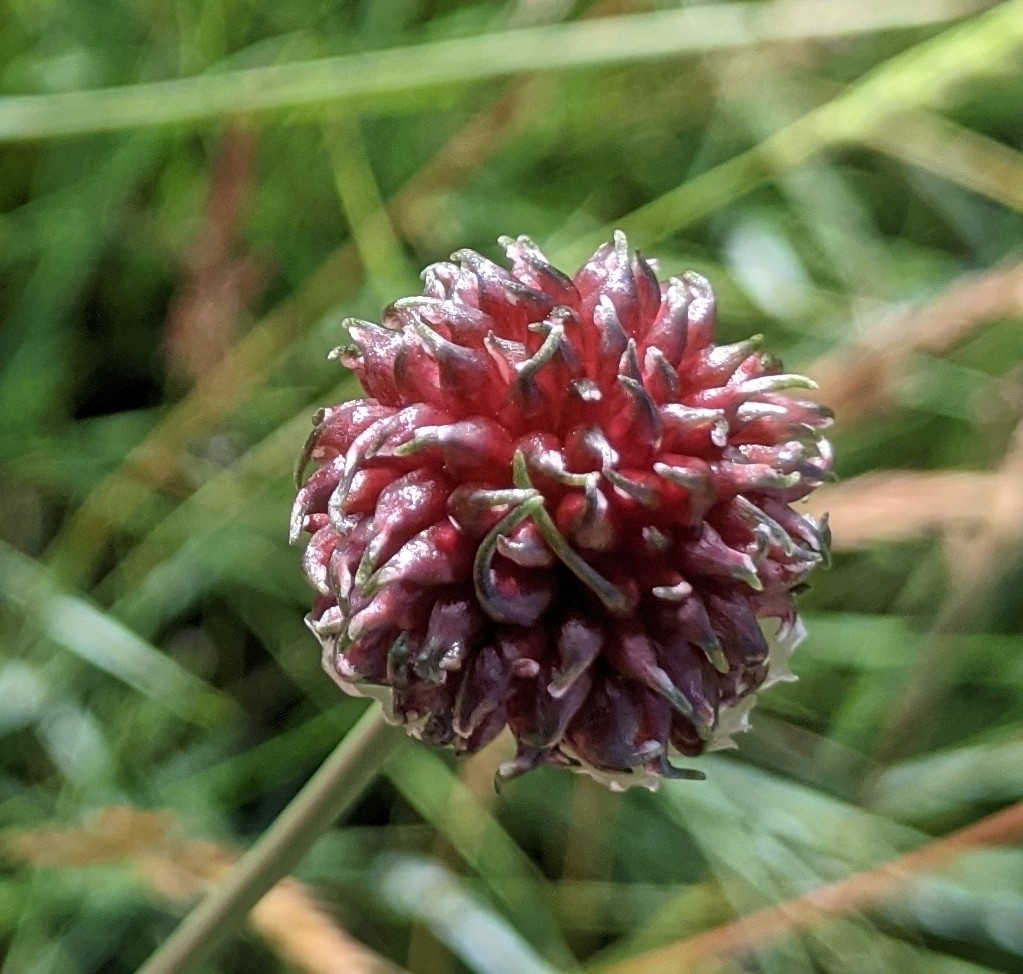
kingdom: Plantae
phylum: Tracheophyta
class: Liliopsida
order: Asparagales
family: Amaryllidaceae
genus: Allium
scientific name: Allium vineale
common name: Crow garlic
